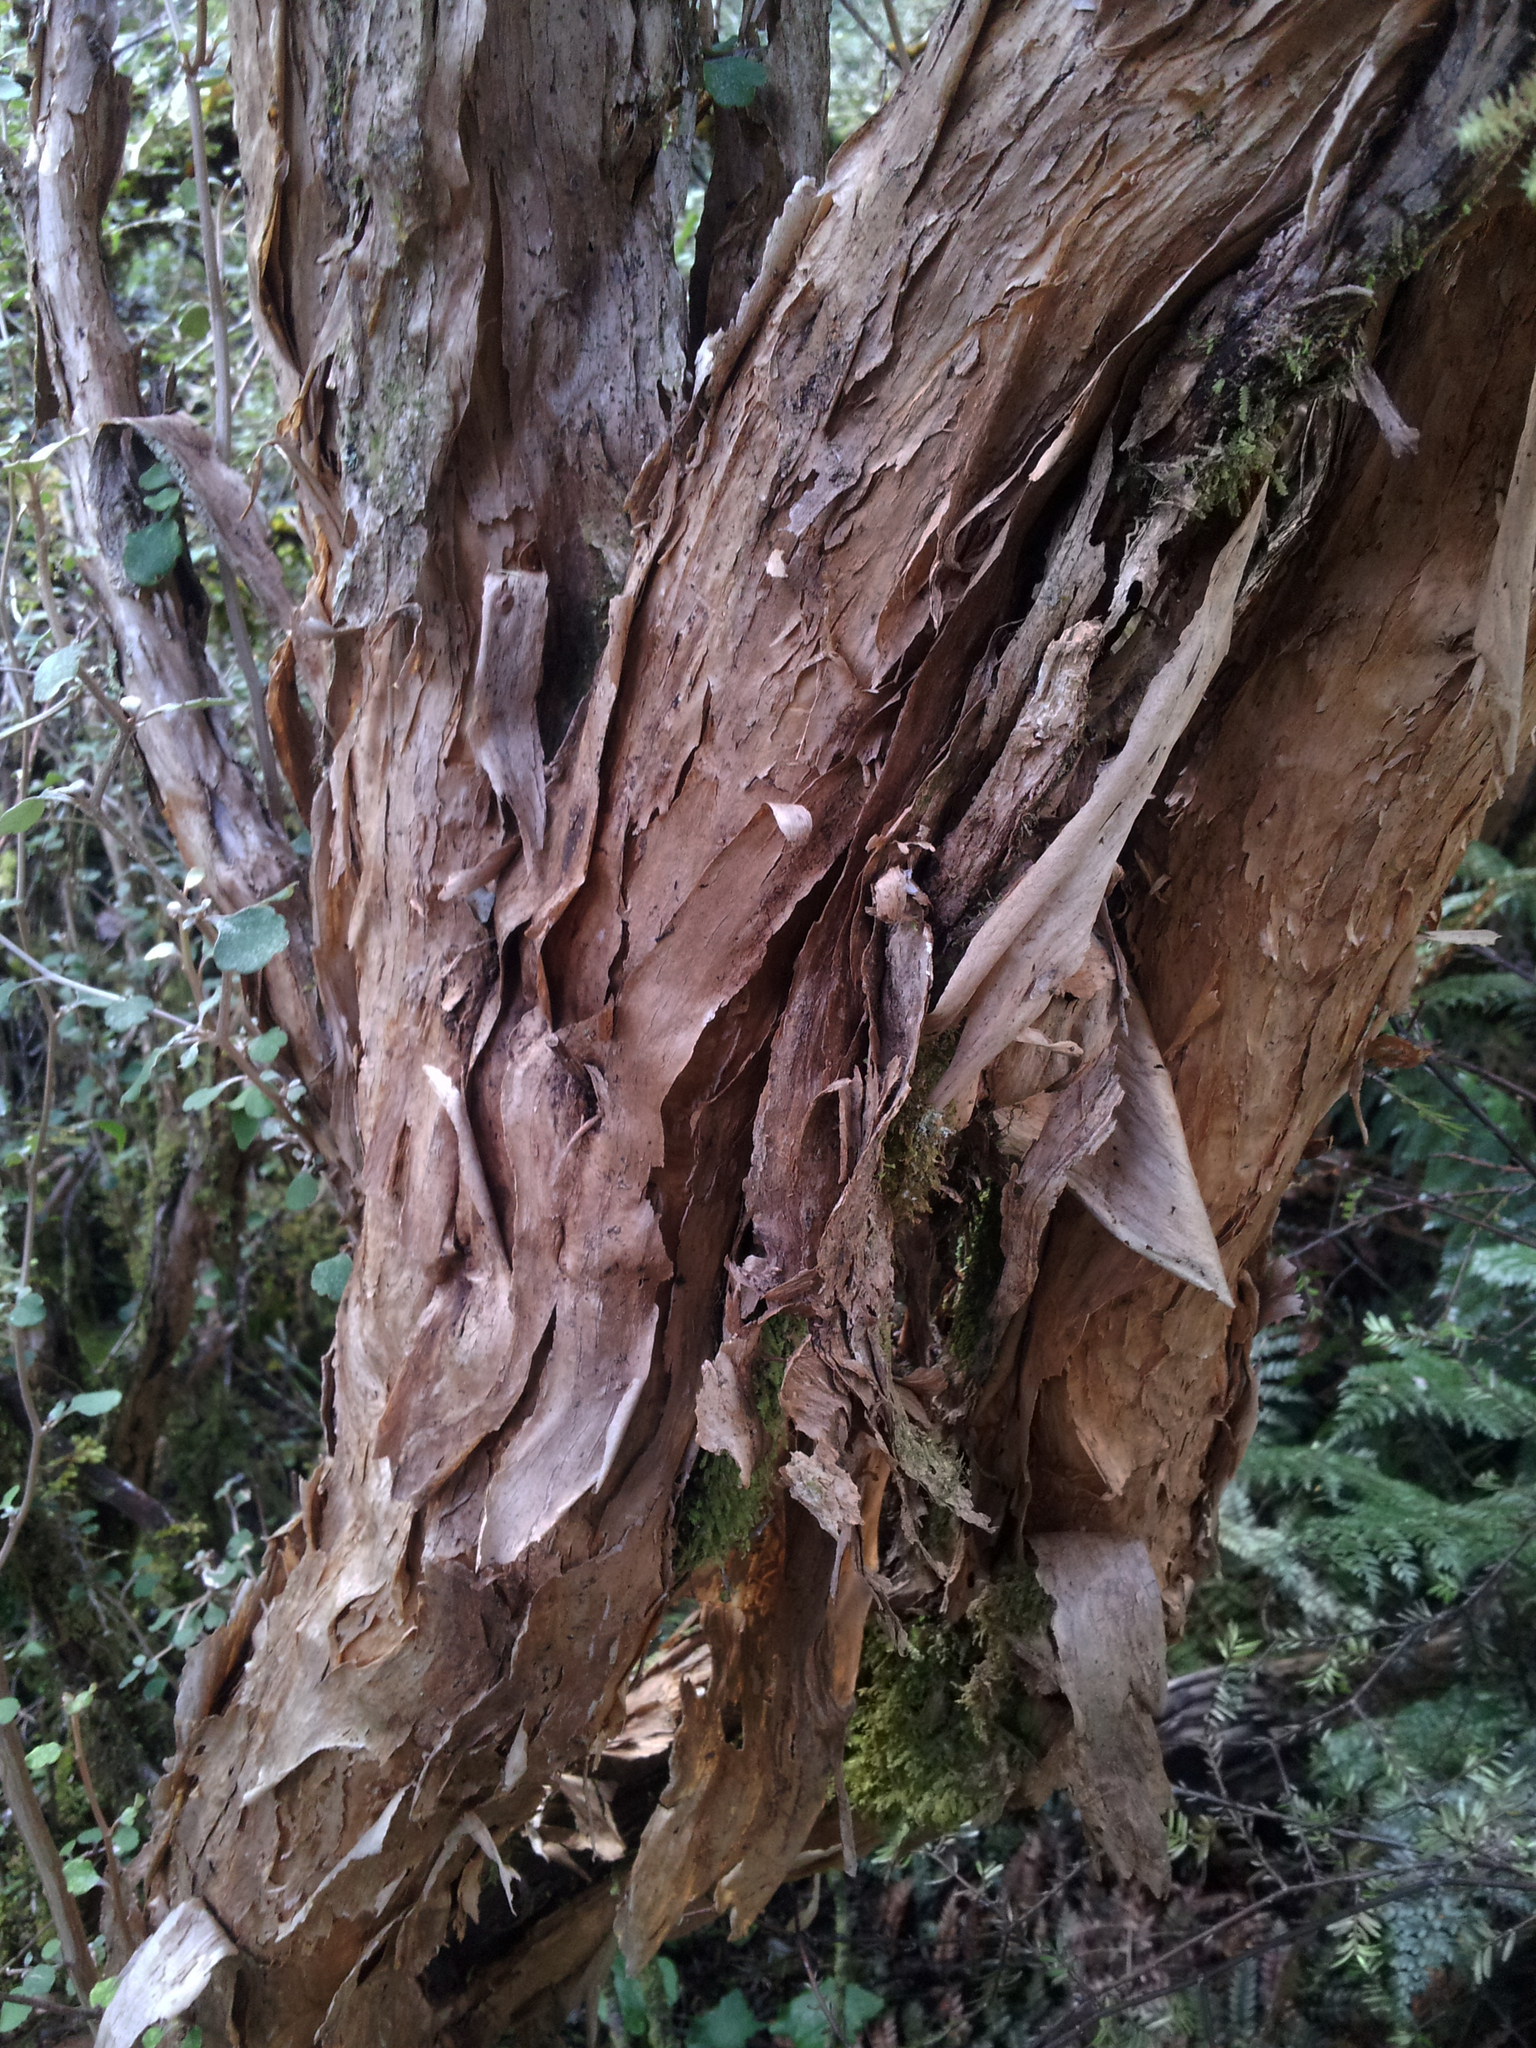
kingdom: Plantae
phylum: Tracheophyta
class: Magnoliopsida
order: Asterales
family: Asteraceae
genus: Olearia
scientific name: Olearia quinquevulnera
